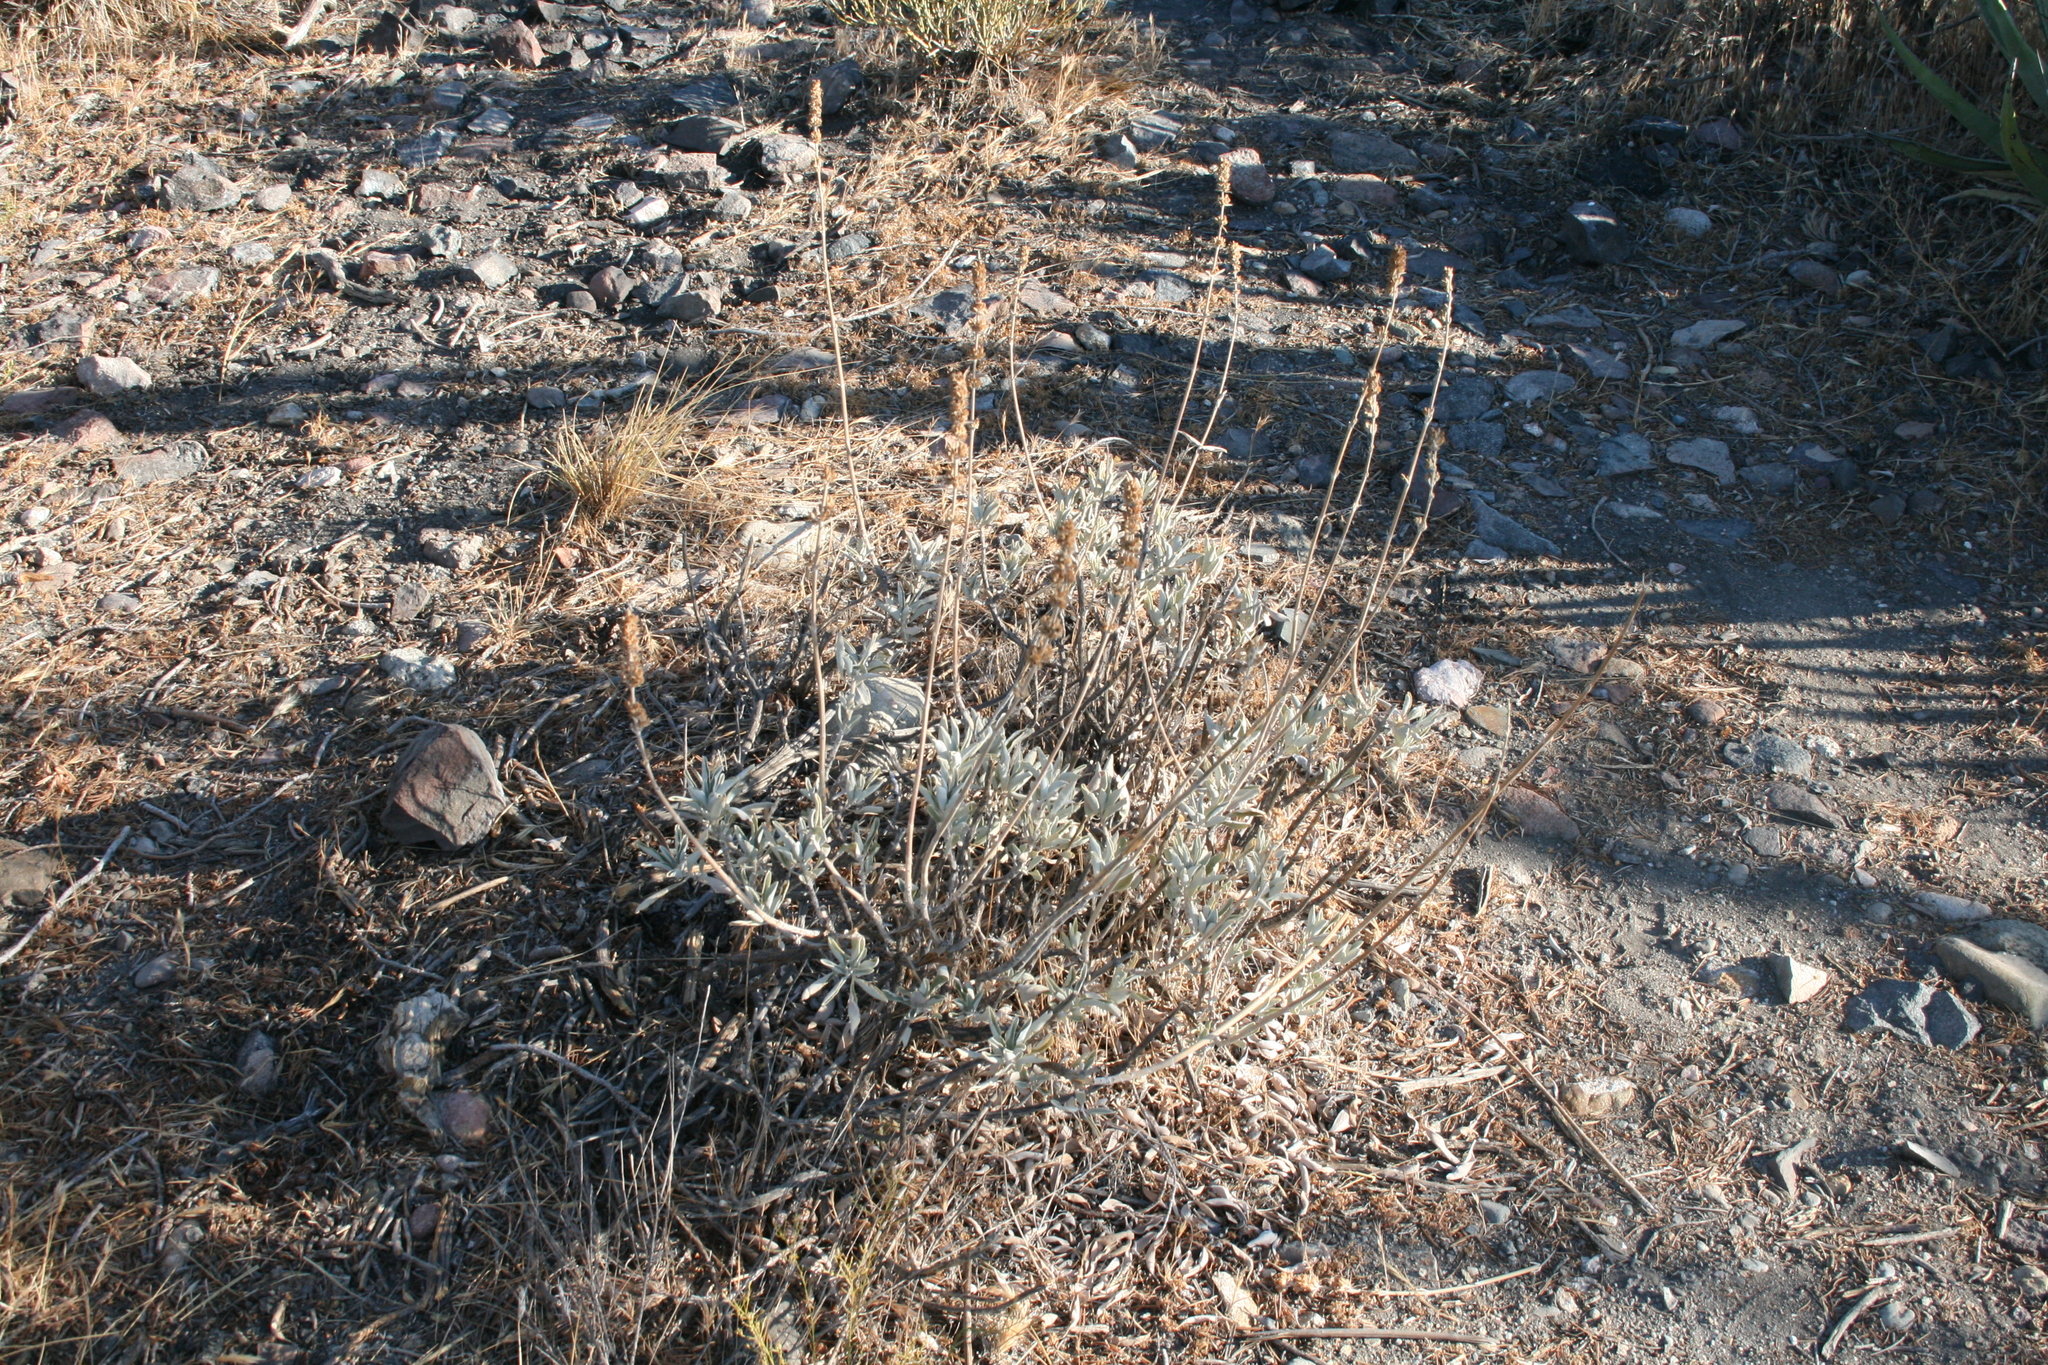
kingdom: Plantae
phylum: Tracheophyta
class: Magnoliopsida
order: Lamiales
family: Lamiaceae
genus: Salvia
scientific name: Salvia apiana
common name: White sage
